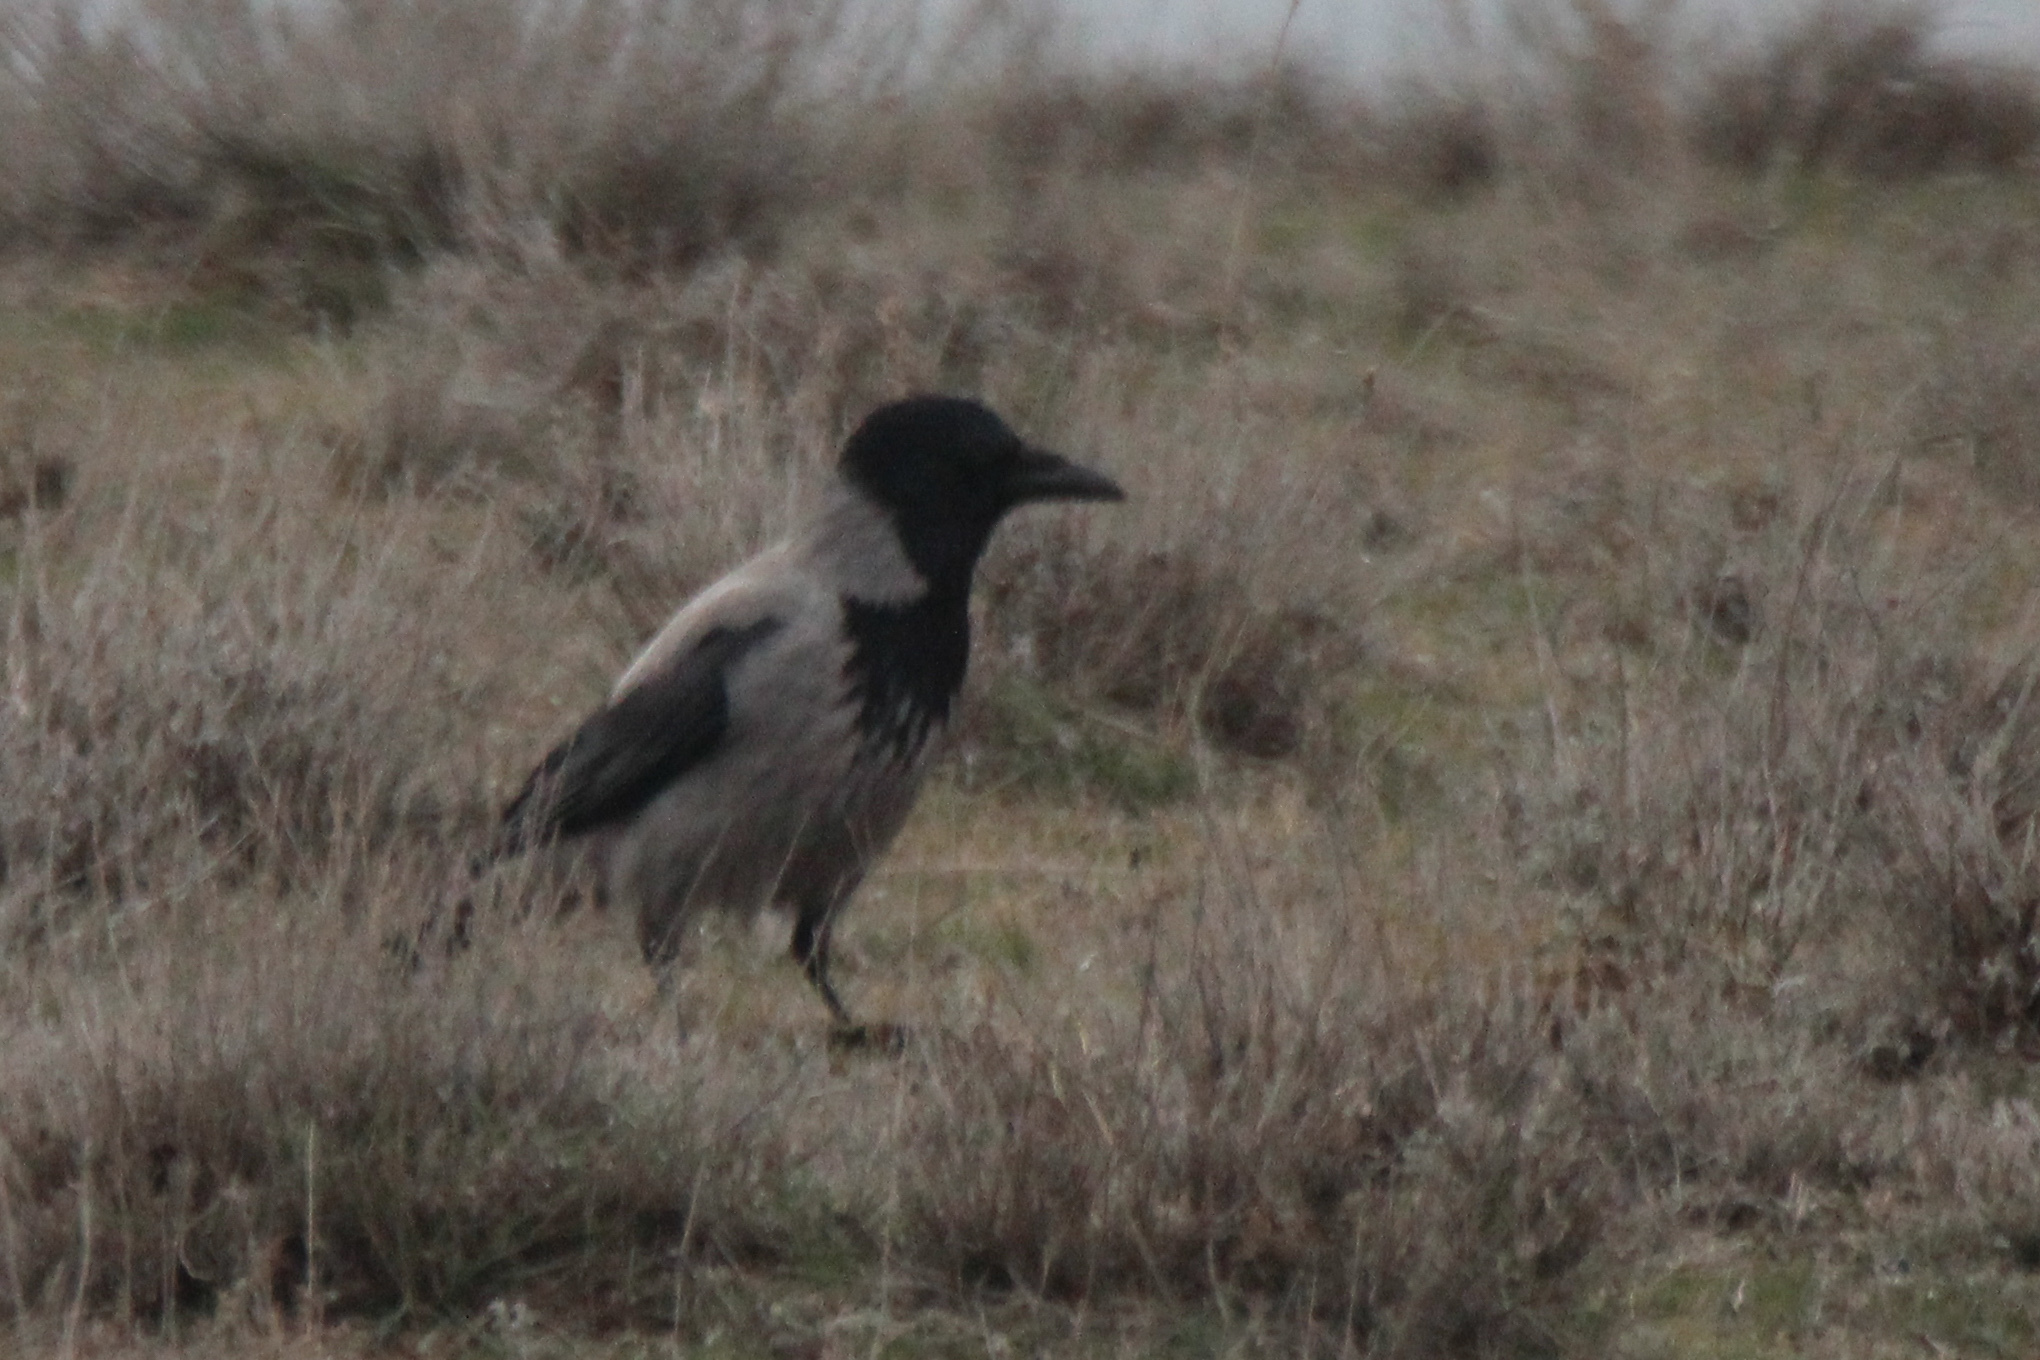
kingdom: Animalia
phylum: Chordata
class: Aves
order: Passeriformes
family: Corvidae
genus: Corvus
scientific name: Corvus cornix
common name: Hooded crow
